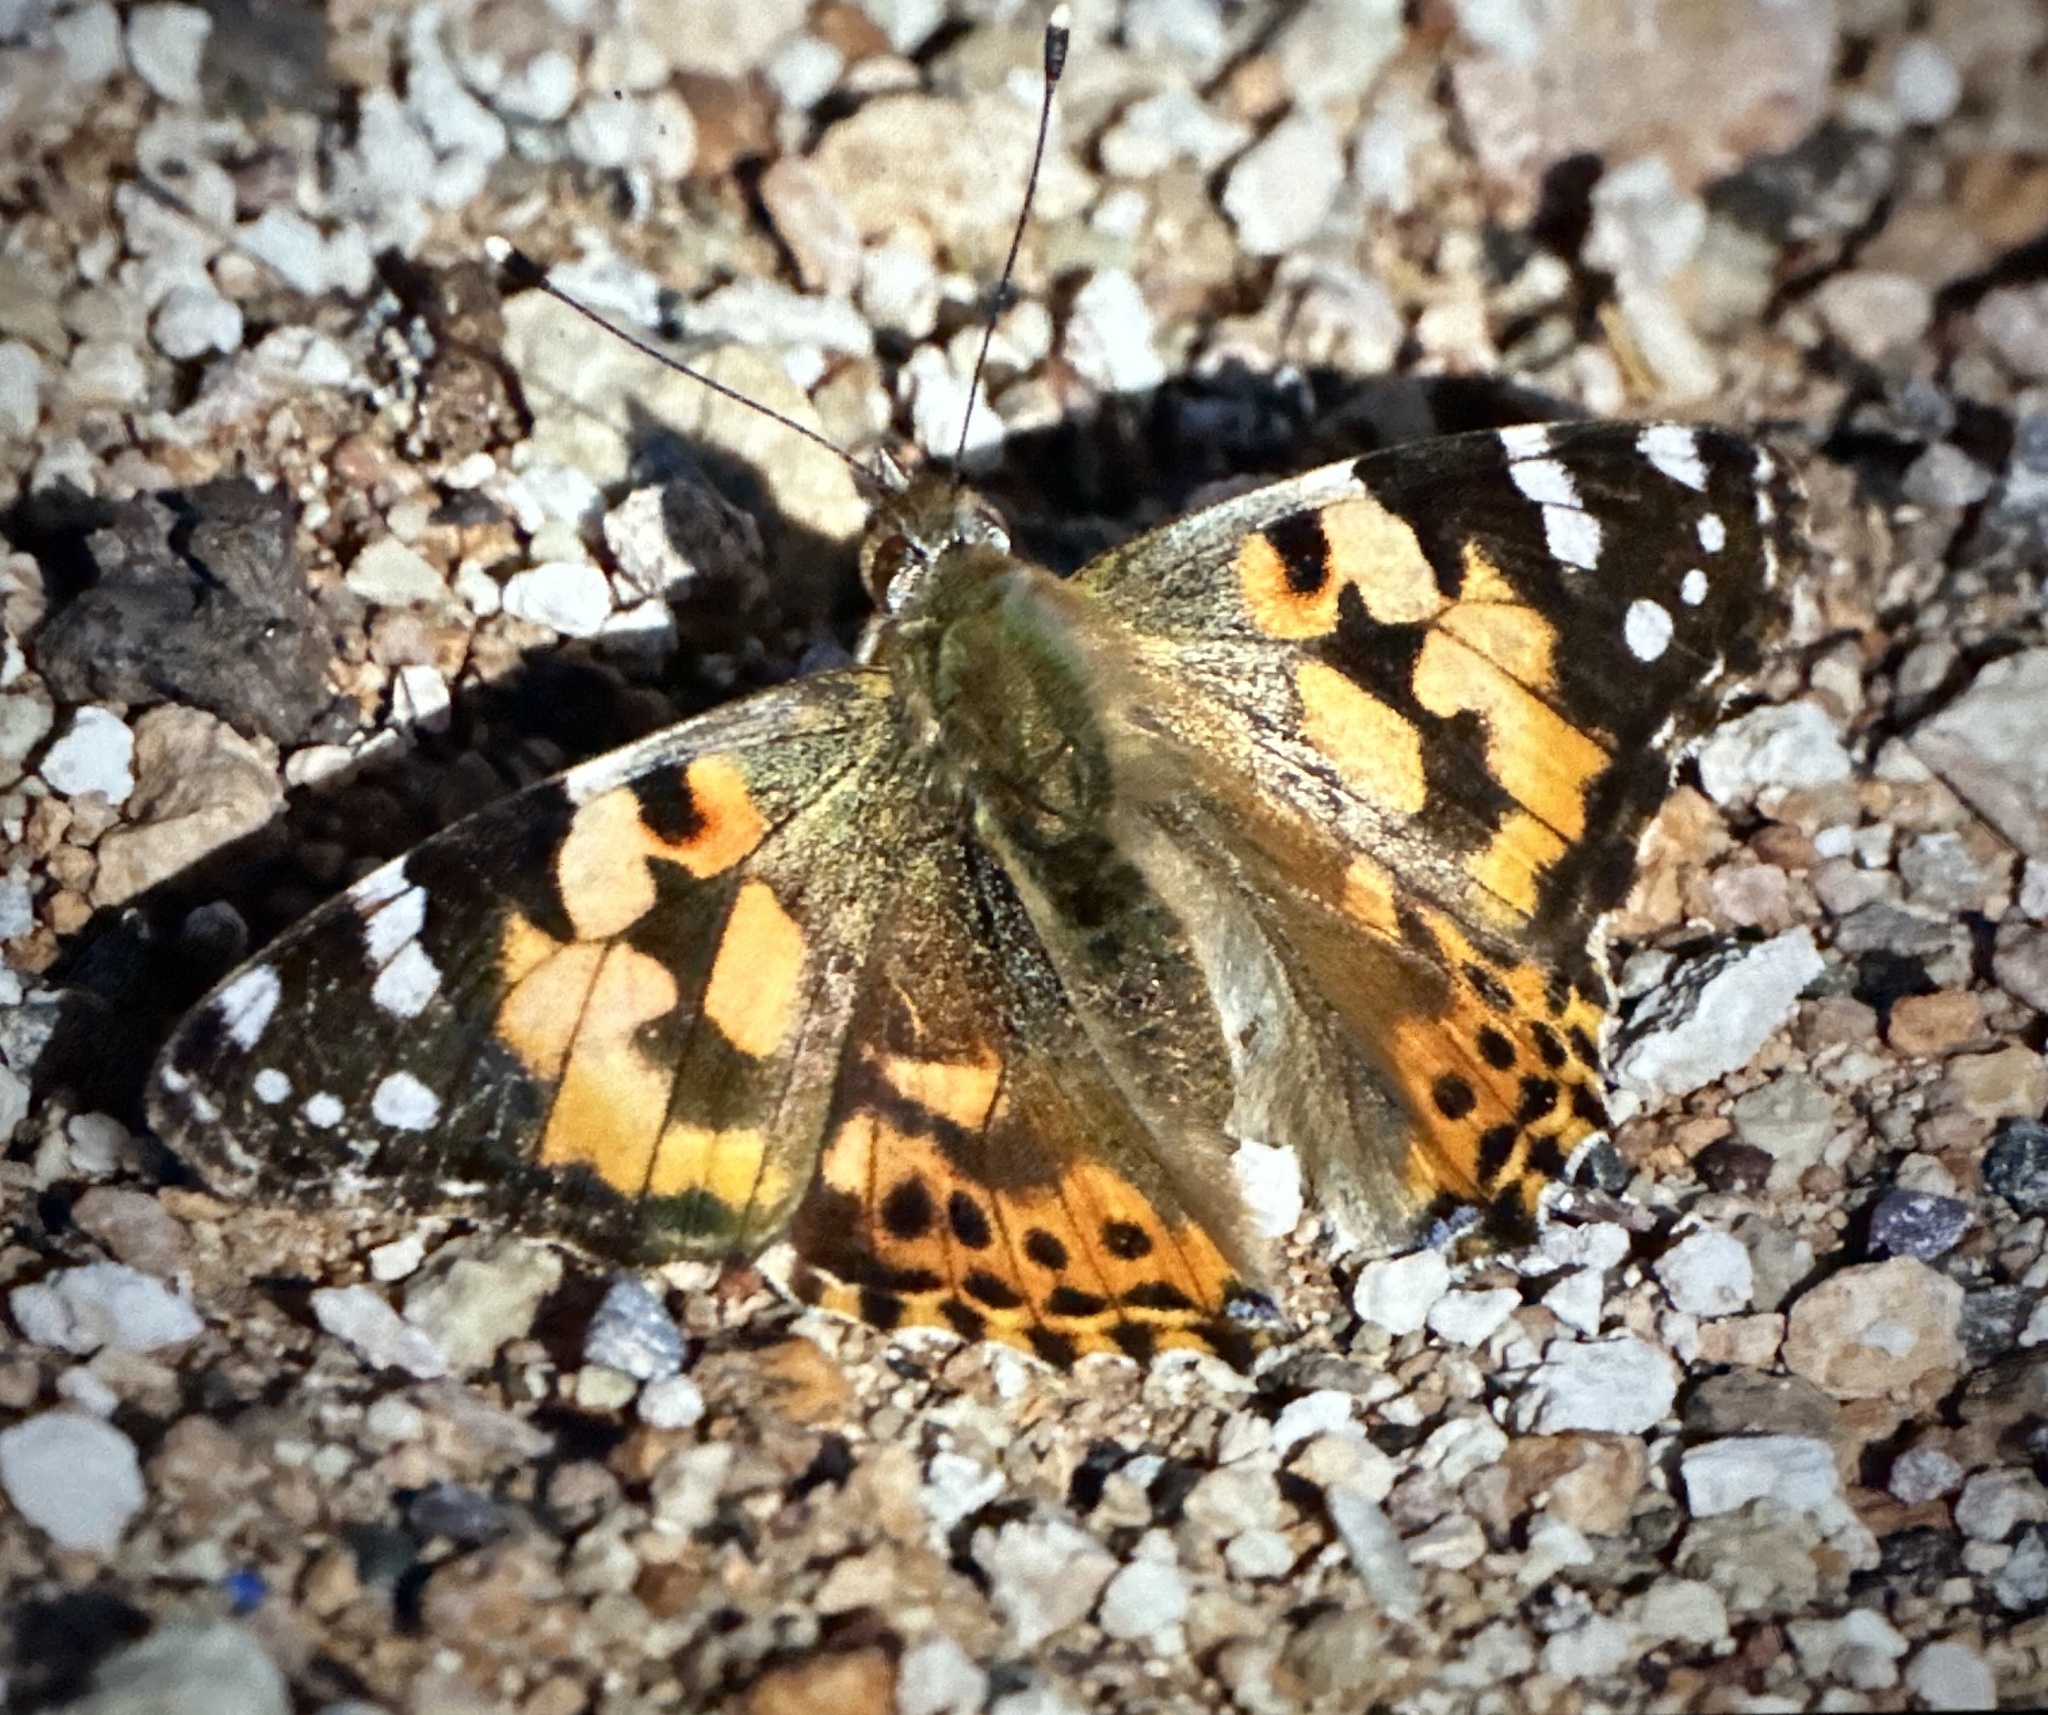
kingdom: Animalia
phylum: Arthropoda
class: Insecta
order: Lepidoptera
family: Nymphalidae
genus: Vanessa
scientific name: Vanessa cardui
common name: Painted lady
